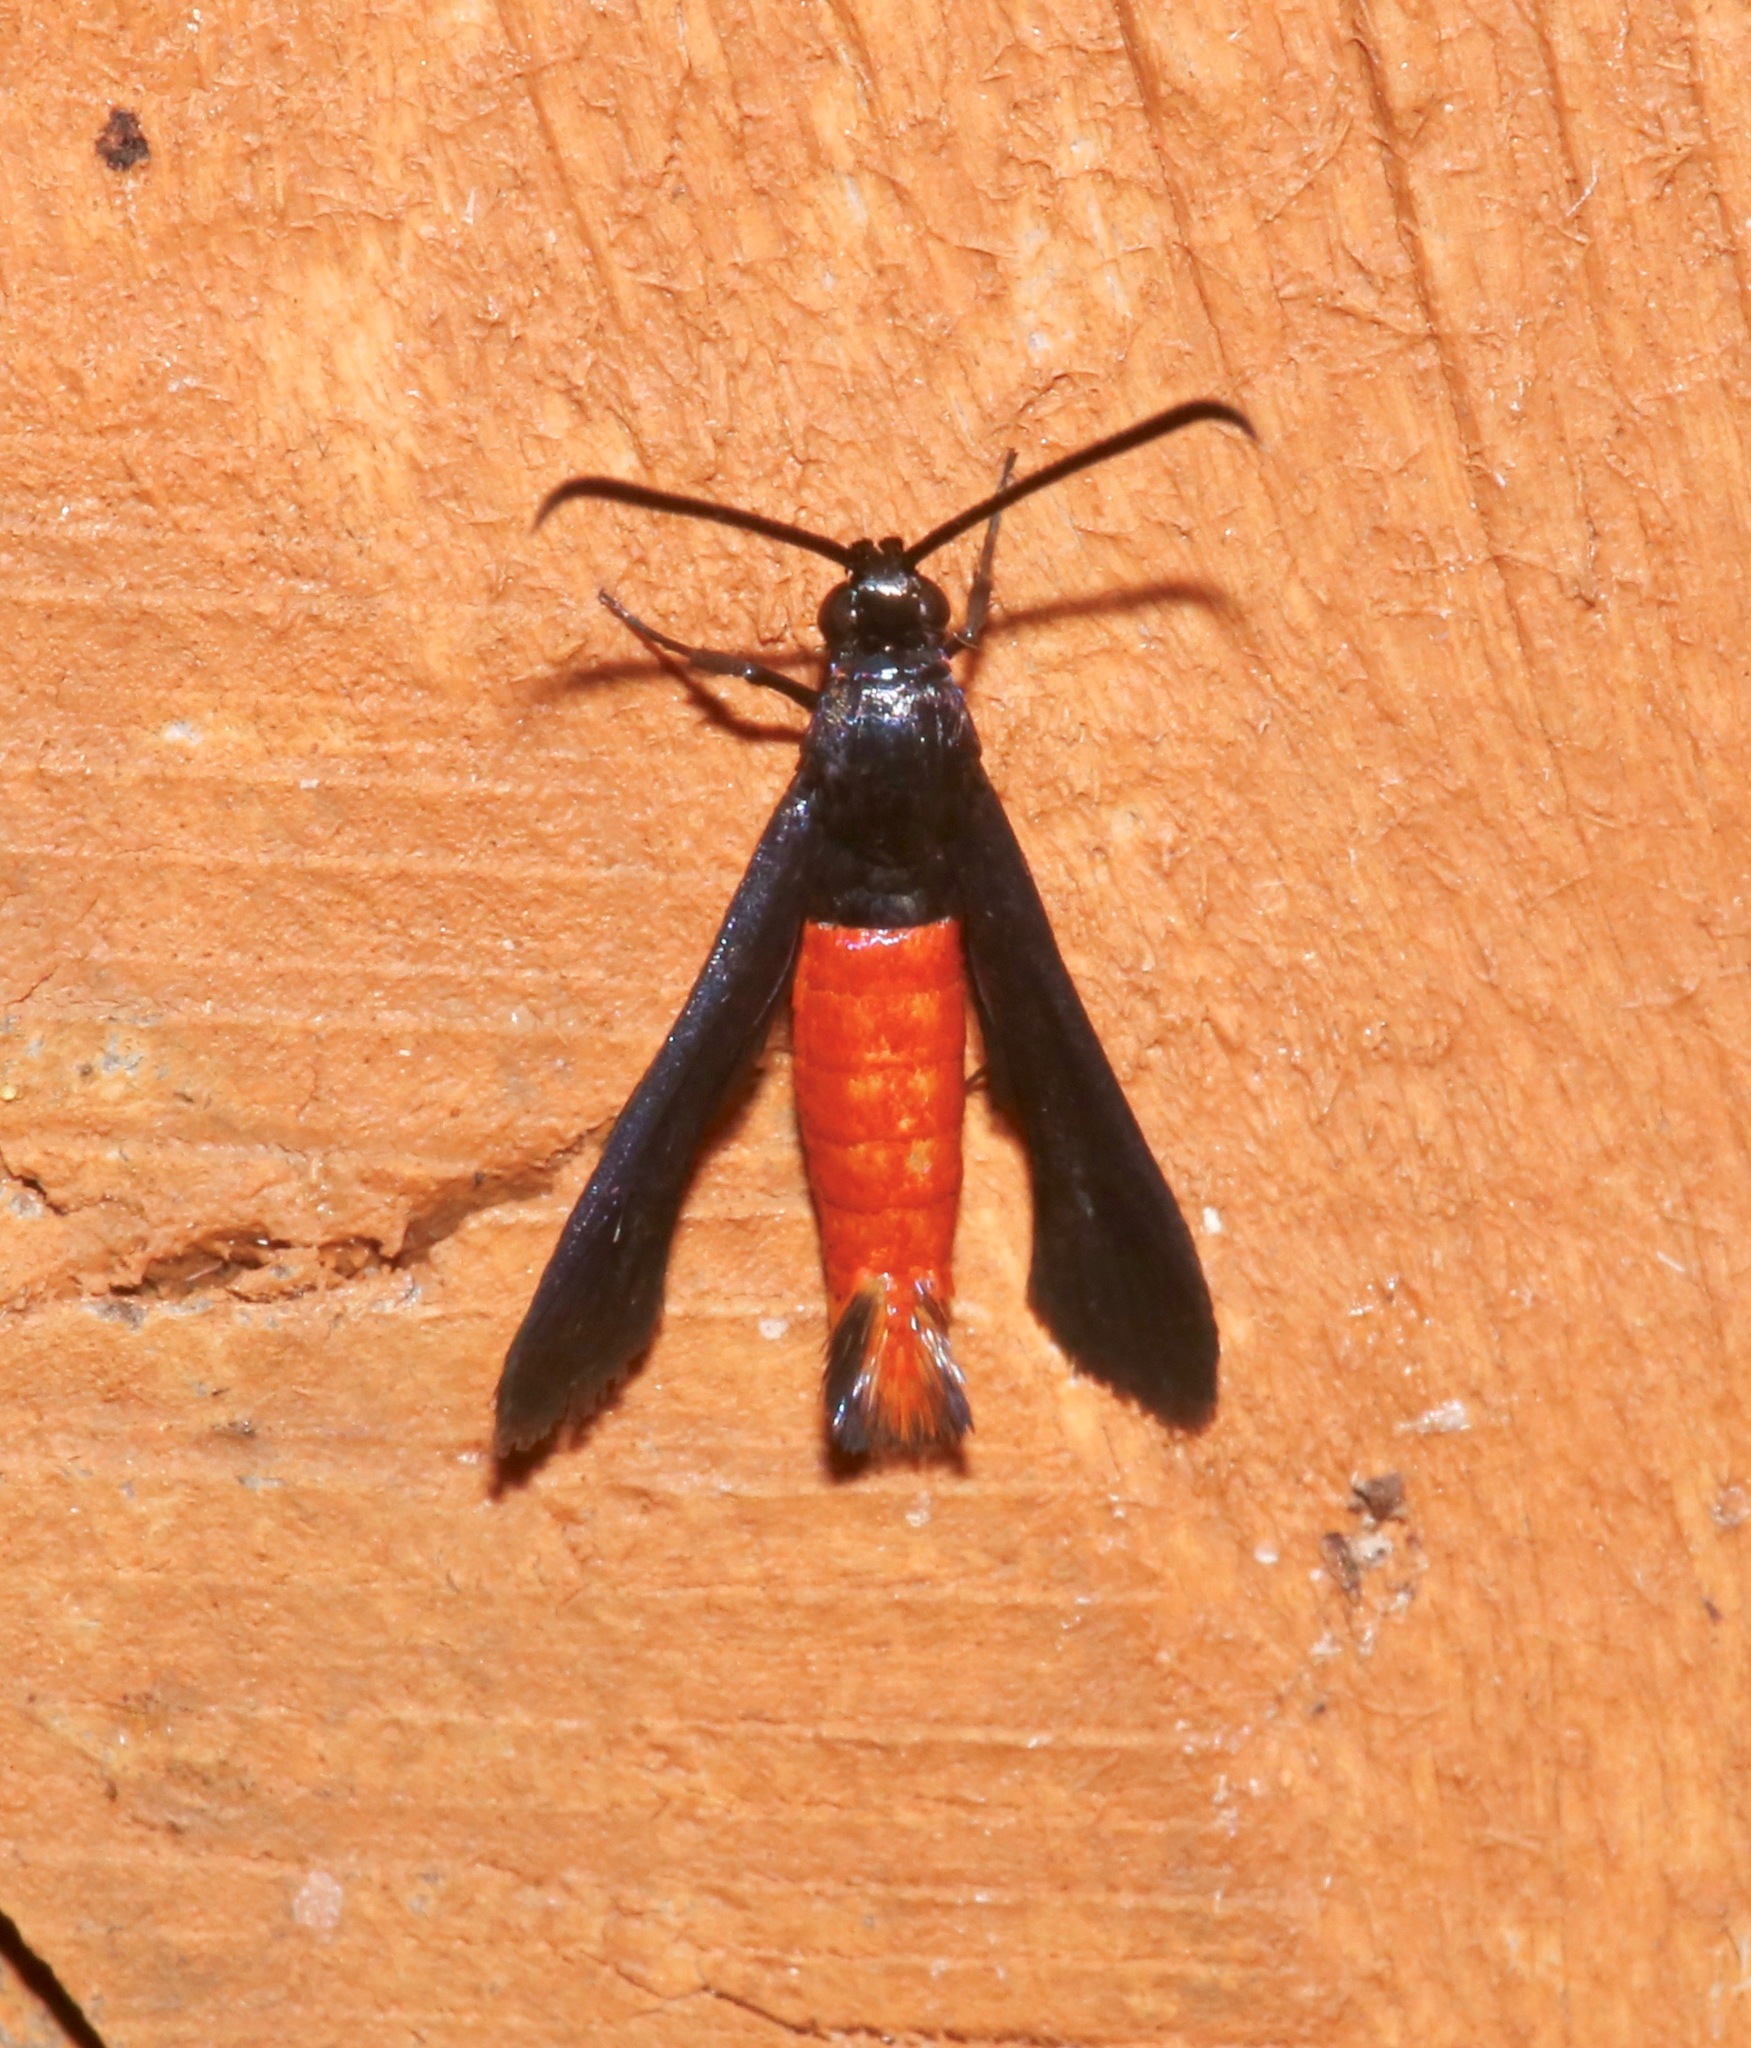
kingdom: Animalia
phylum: Arthropoda
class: Insecta
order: Lepidoptera
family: Sesiidae
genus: Synanthedon
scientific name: Synanthedon geliformis
